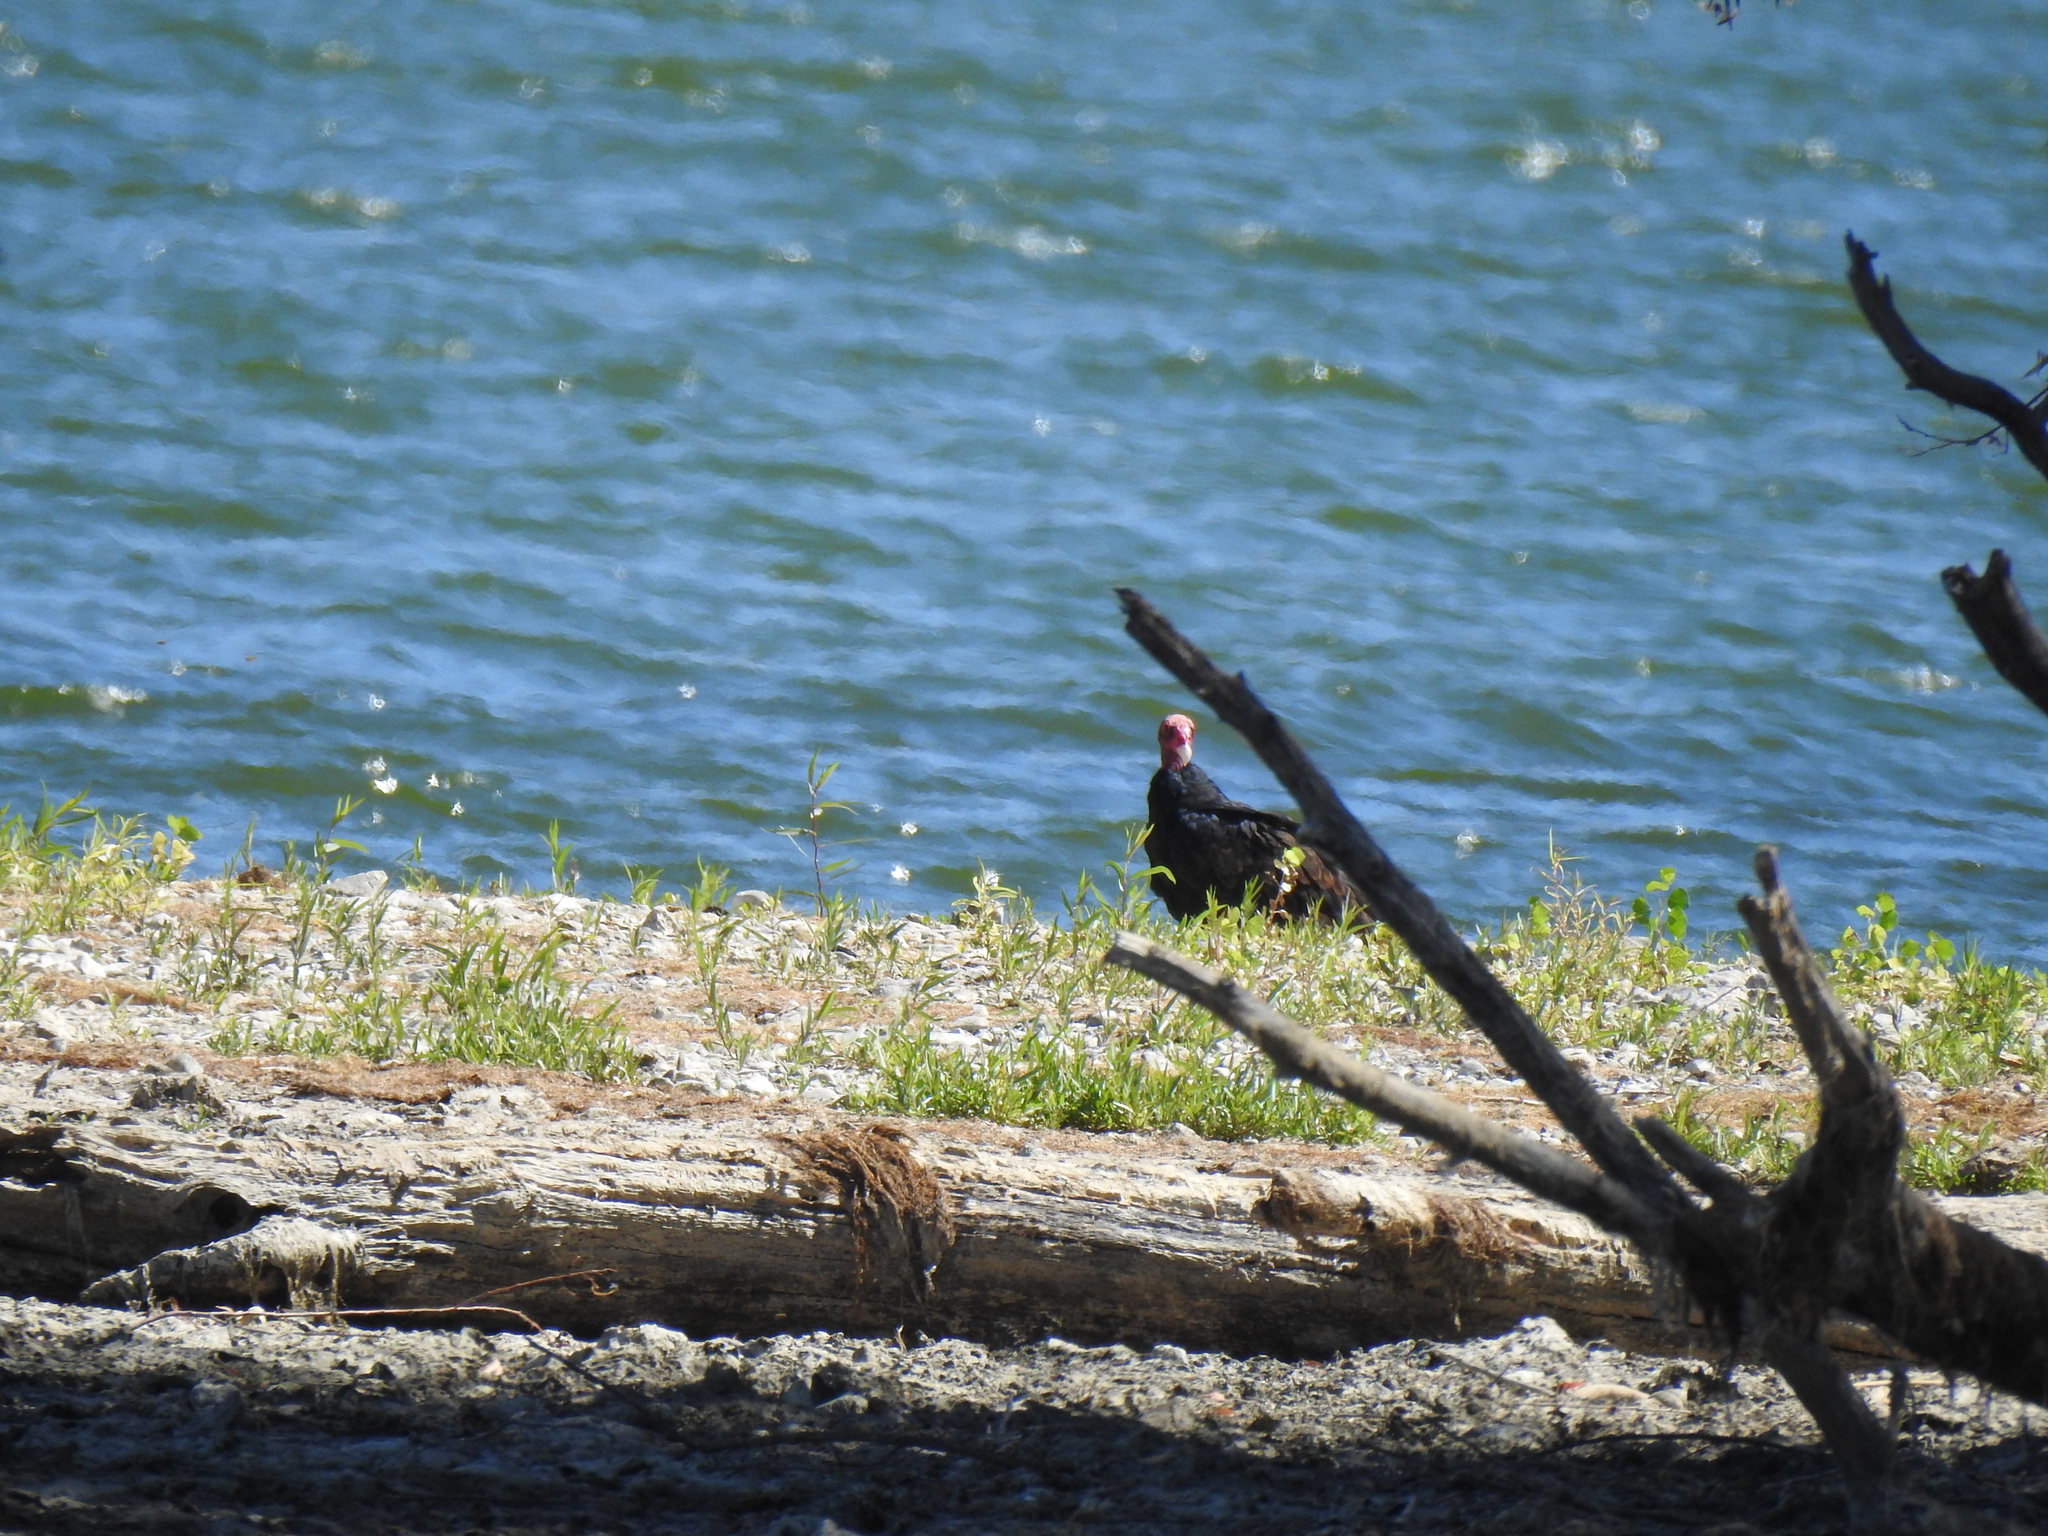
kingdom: Animalia
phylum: Chordata
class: Aves
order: Accipitriformes
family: Cathartidae
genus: Cathartes
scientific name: Cathartes aura
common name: Turkey vulture
